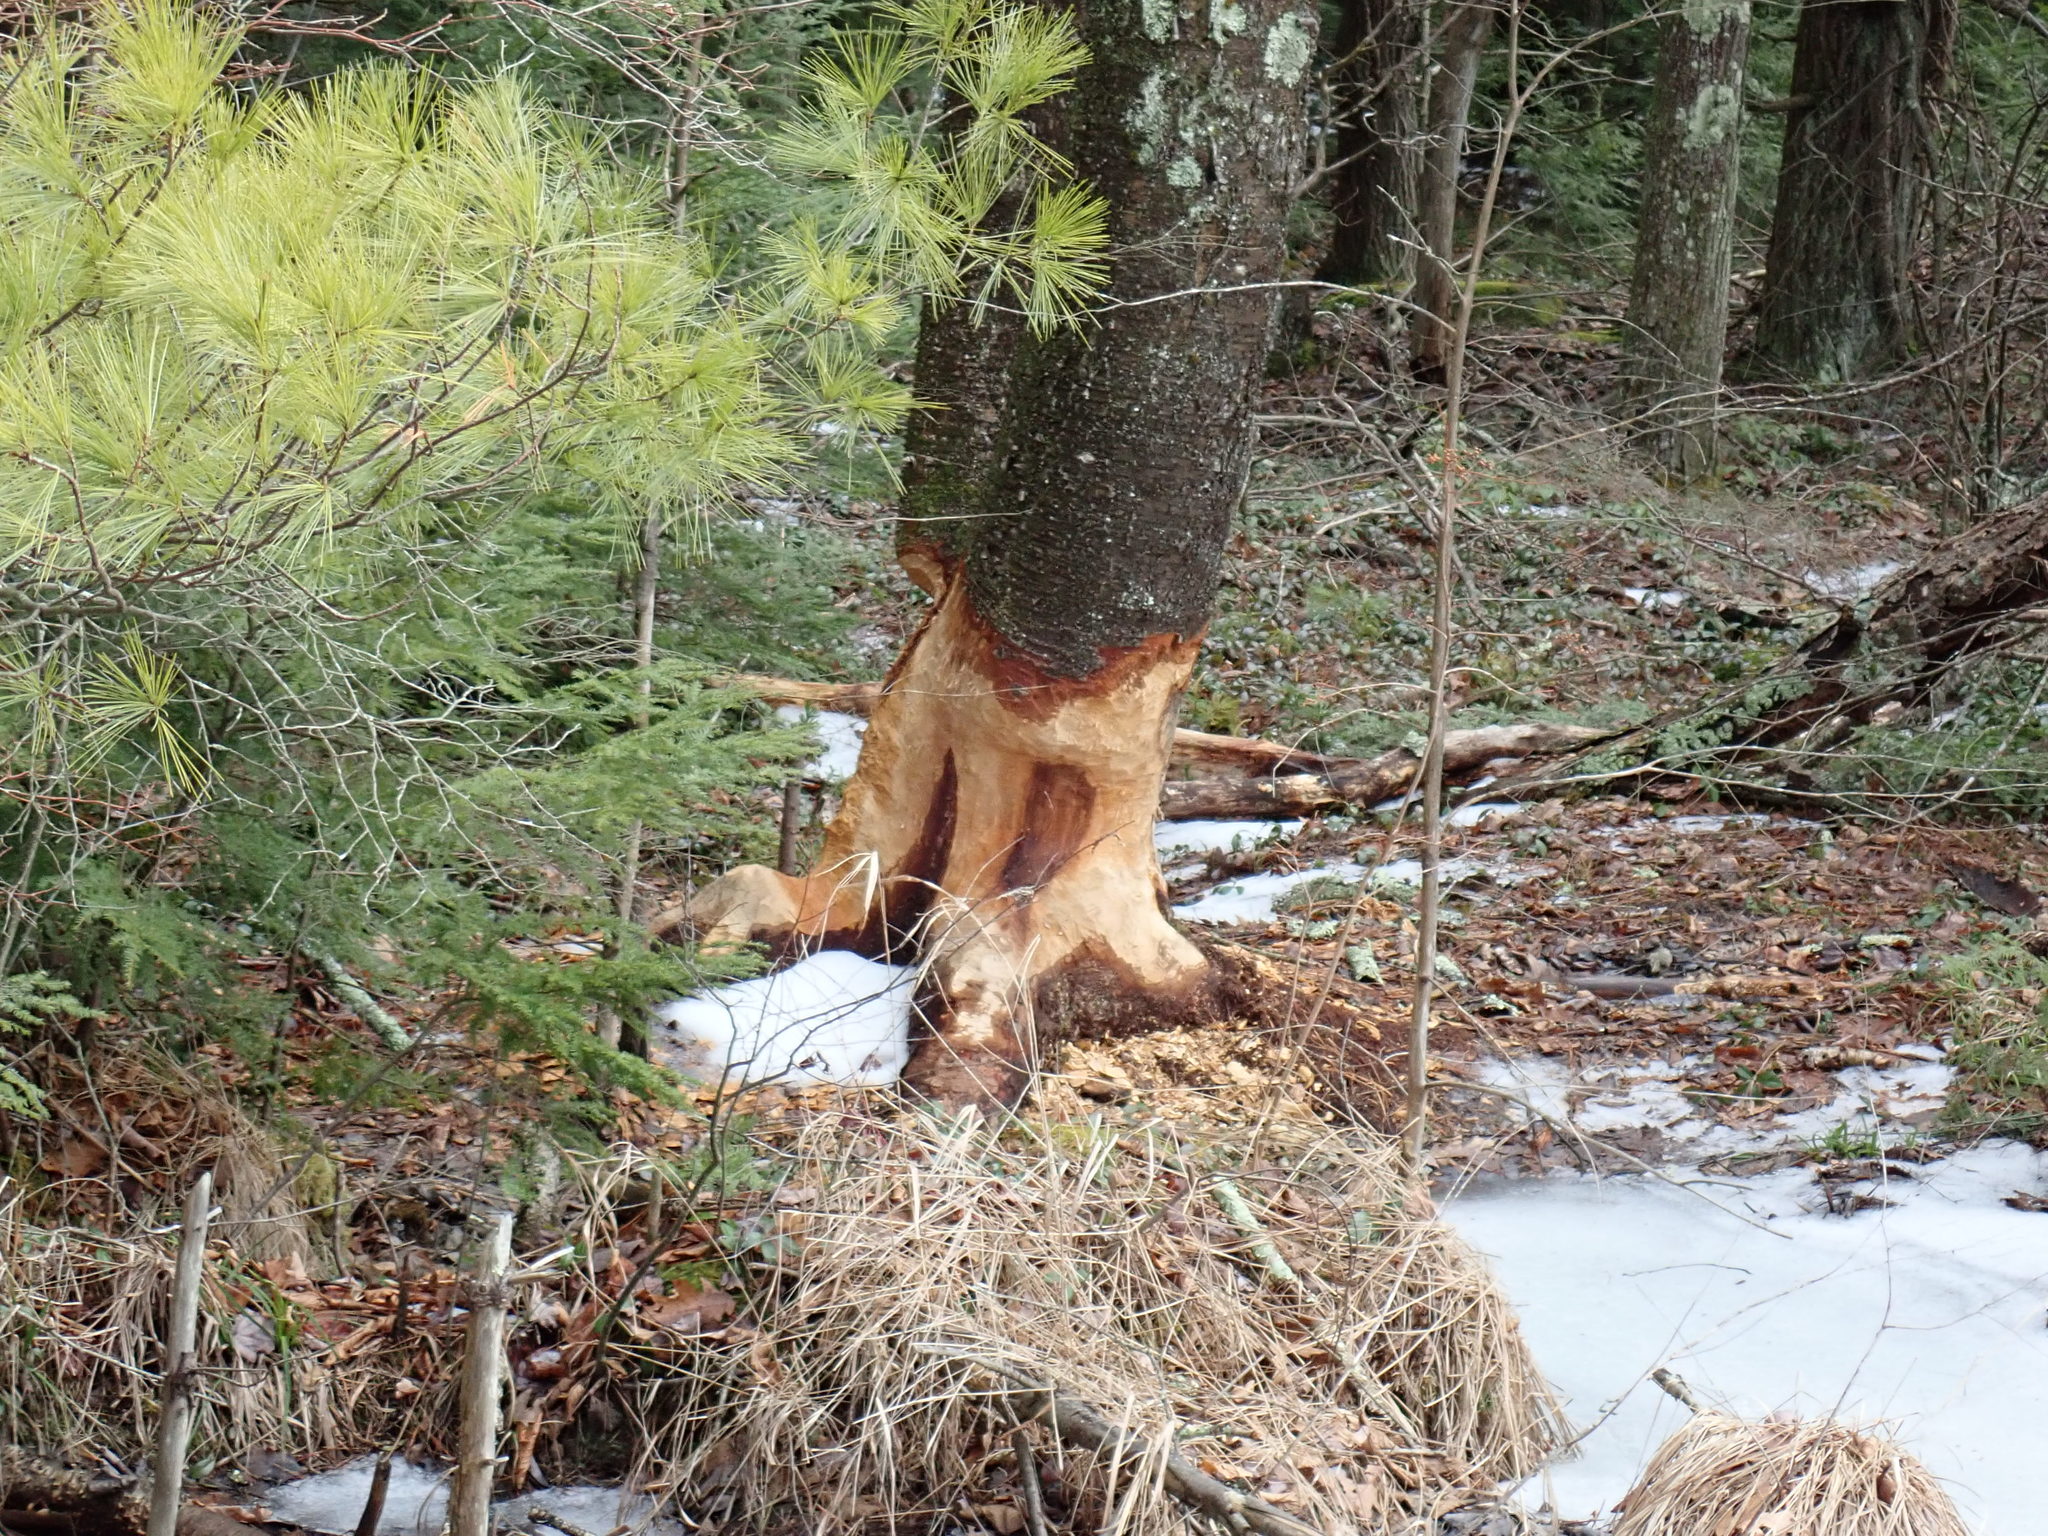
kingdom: Animalia
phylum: Chordata
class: Mammalia
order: Rodentia
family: Castoridae
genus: Castor
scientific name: Castor canadensis
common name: American beaver
